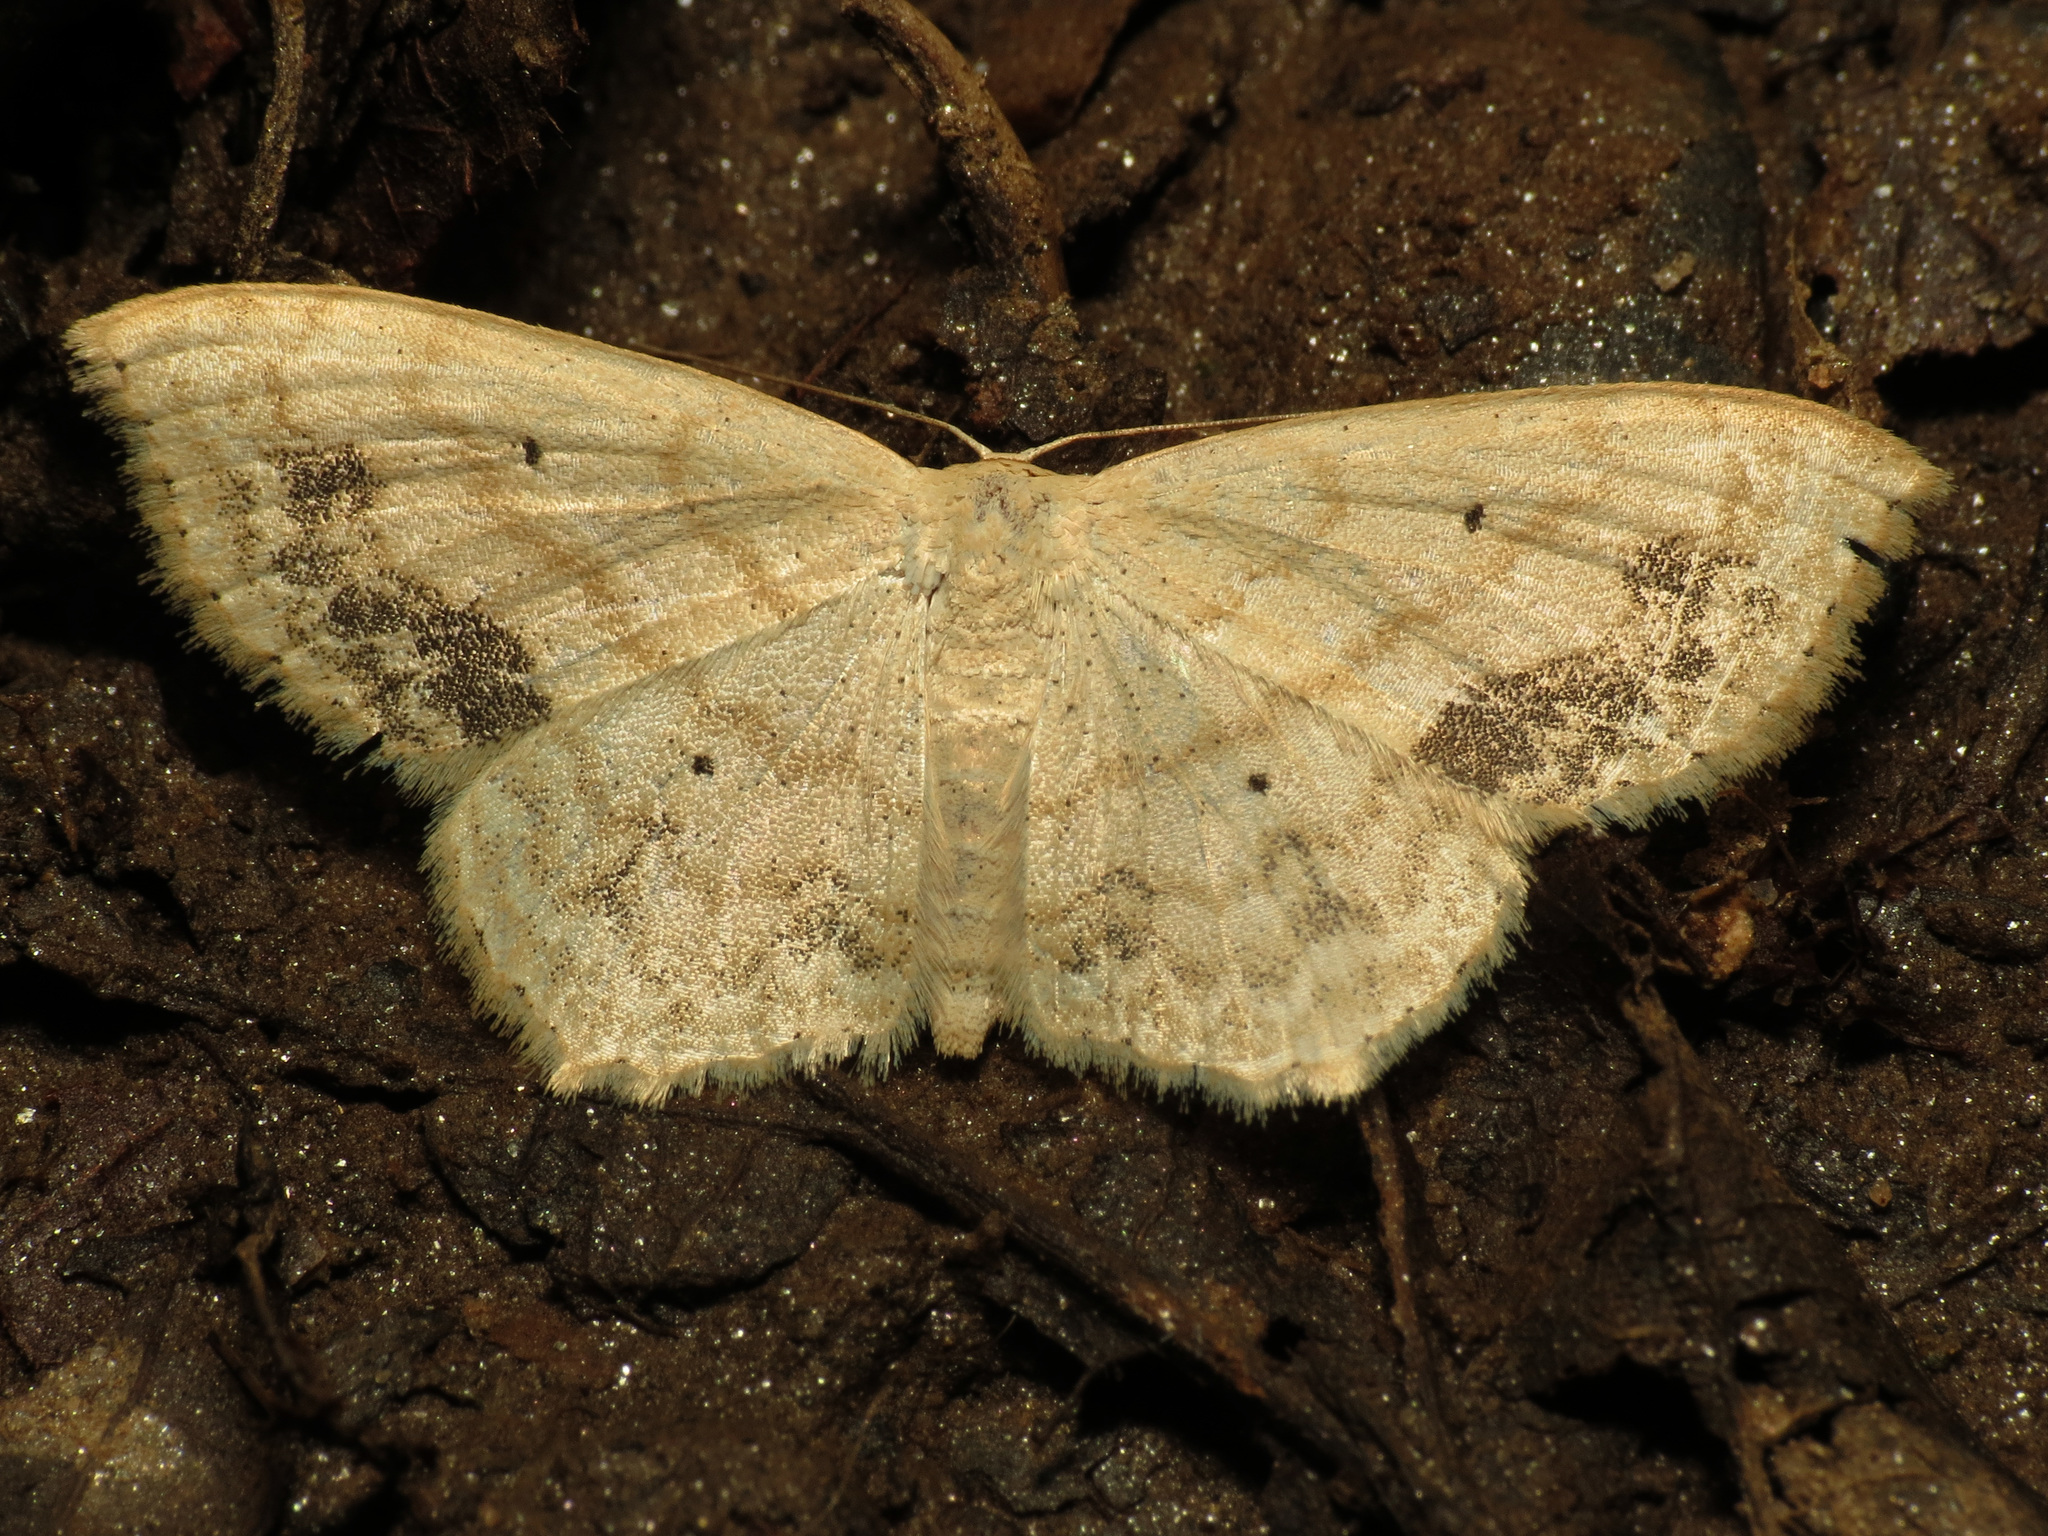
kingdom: Animalia
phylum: Arthropoda
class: Insecta
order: Lepidoptera
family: Geometridae
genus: Scopula
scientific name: Scopula limboundata
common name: Large lace border
